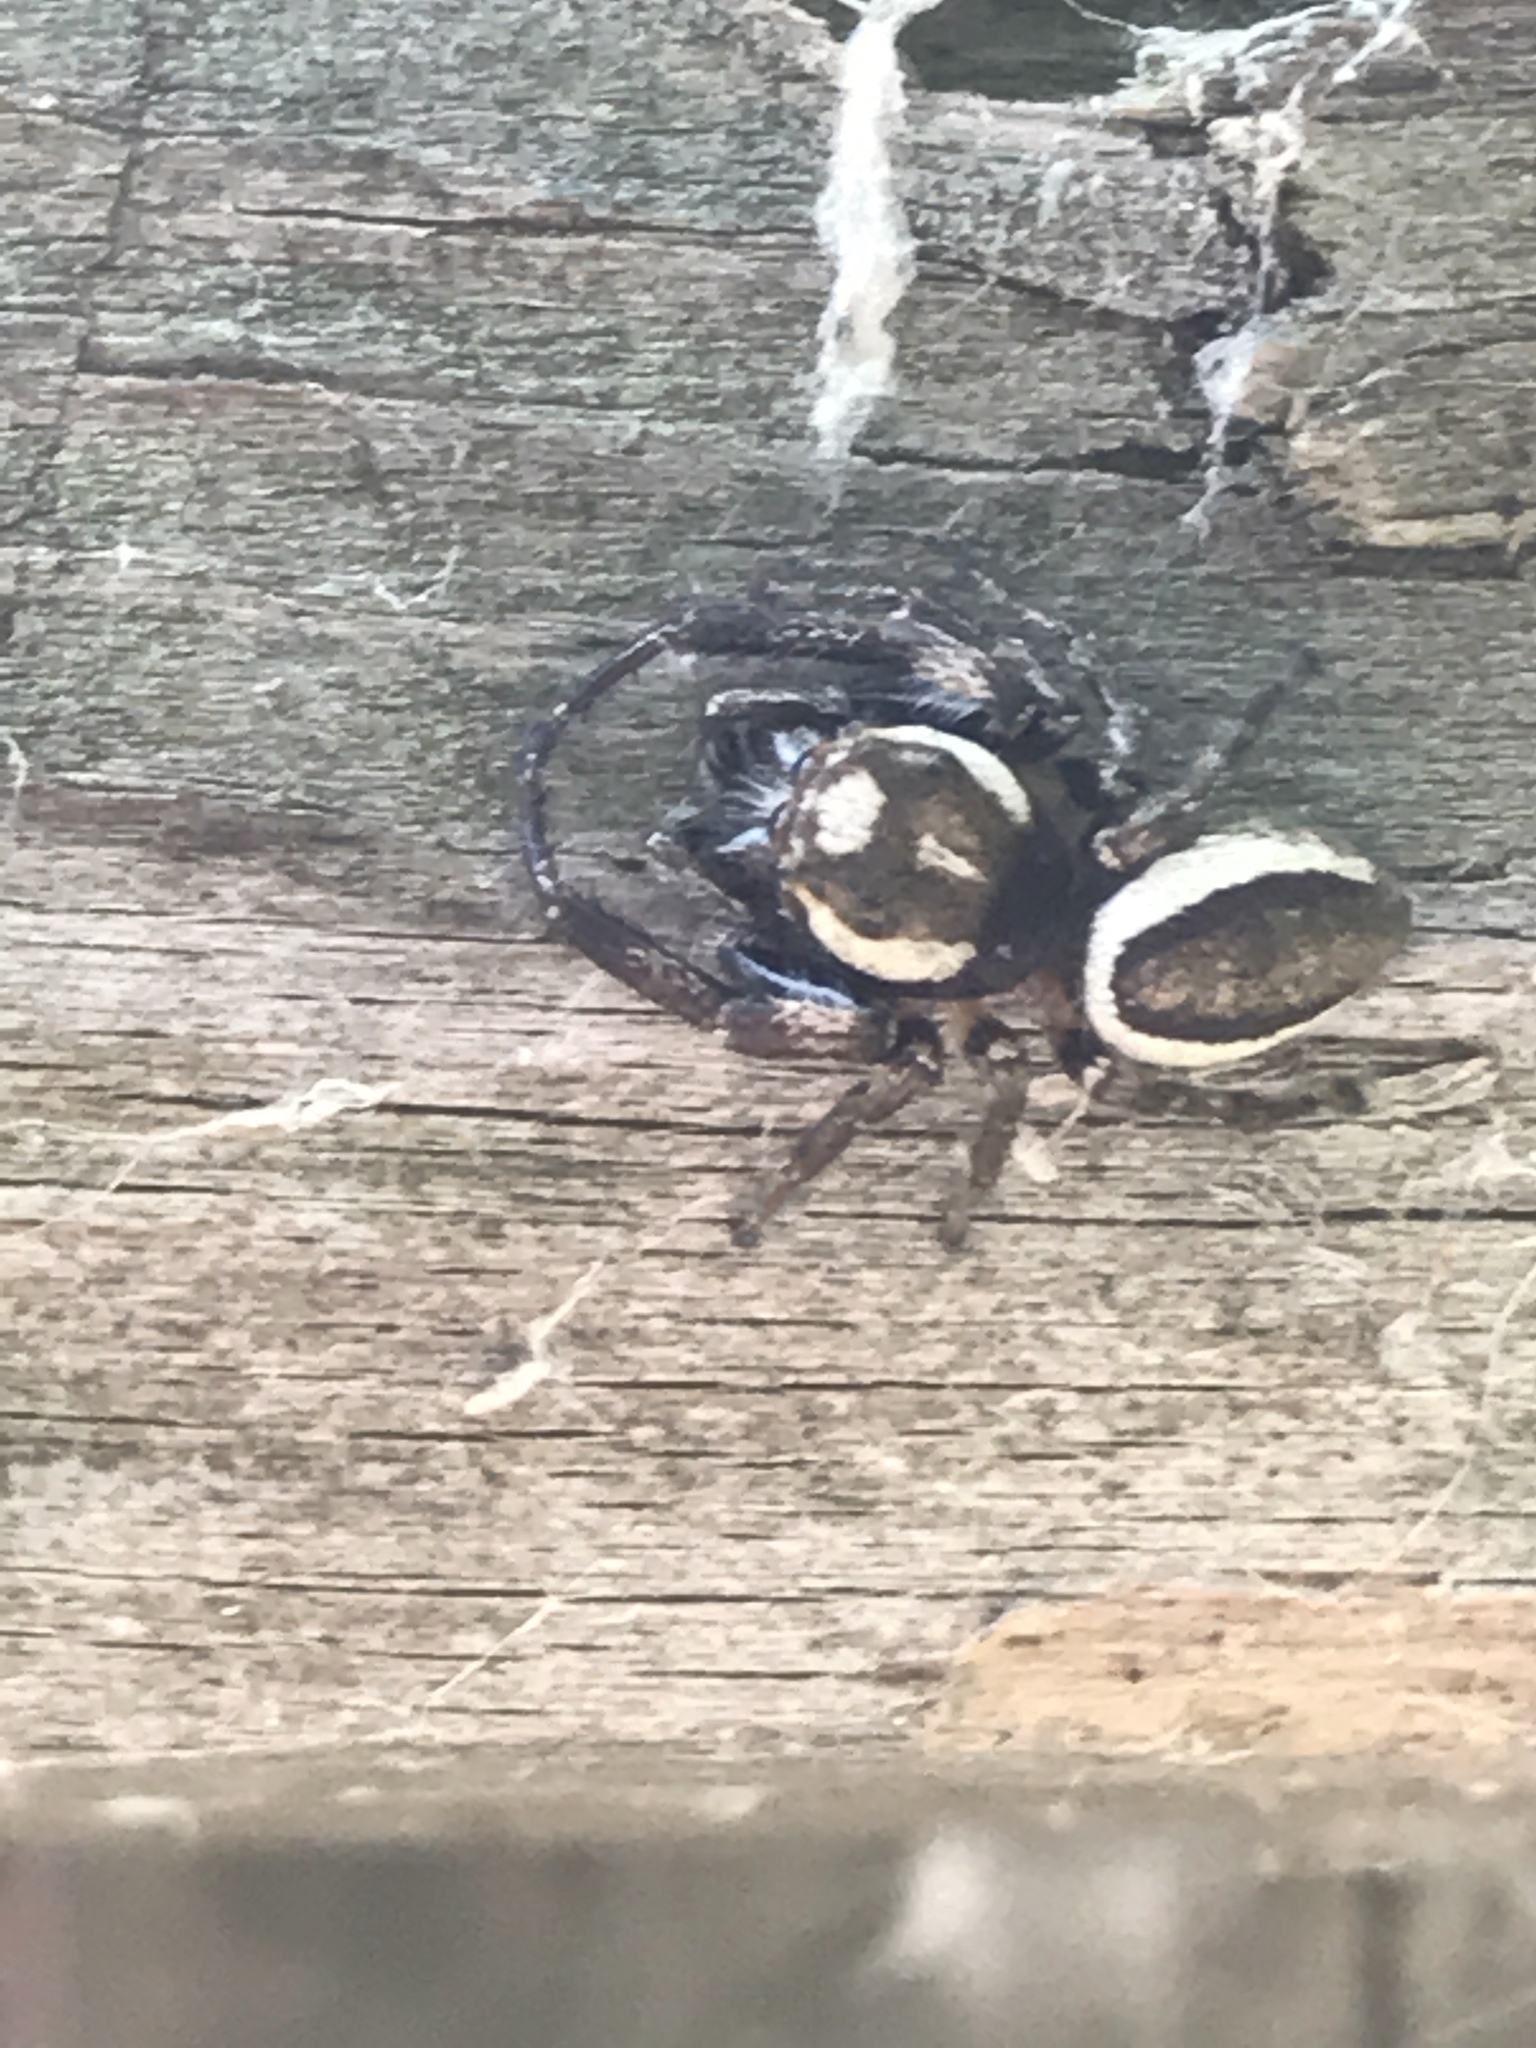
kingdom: Animalia
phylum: Arthropoda
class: Arachnida
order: Araneae
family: Salticidae
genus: Eris
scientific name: Eris militaris
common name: Bronze jumper
